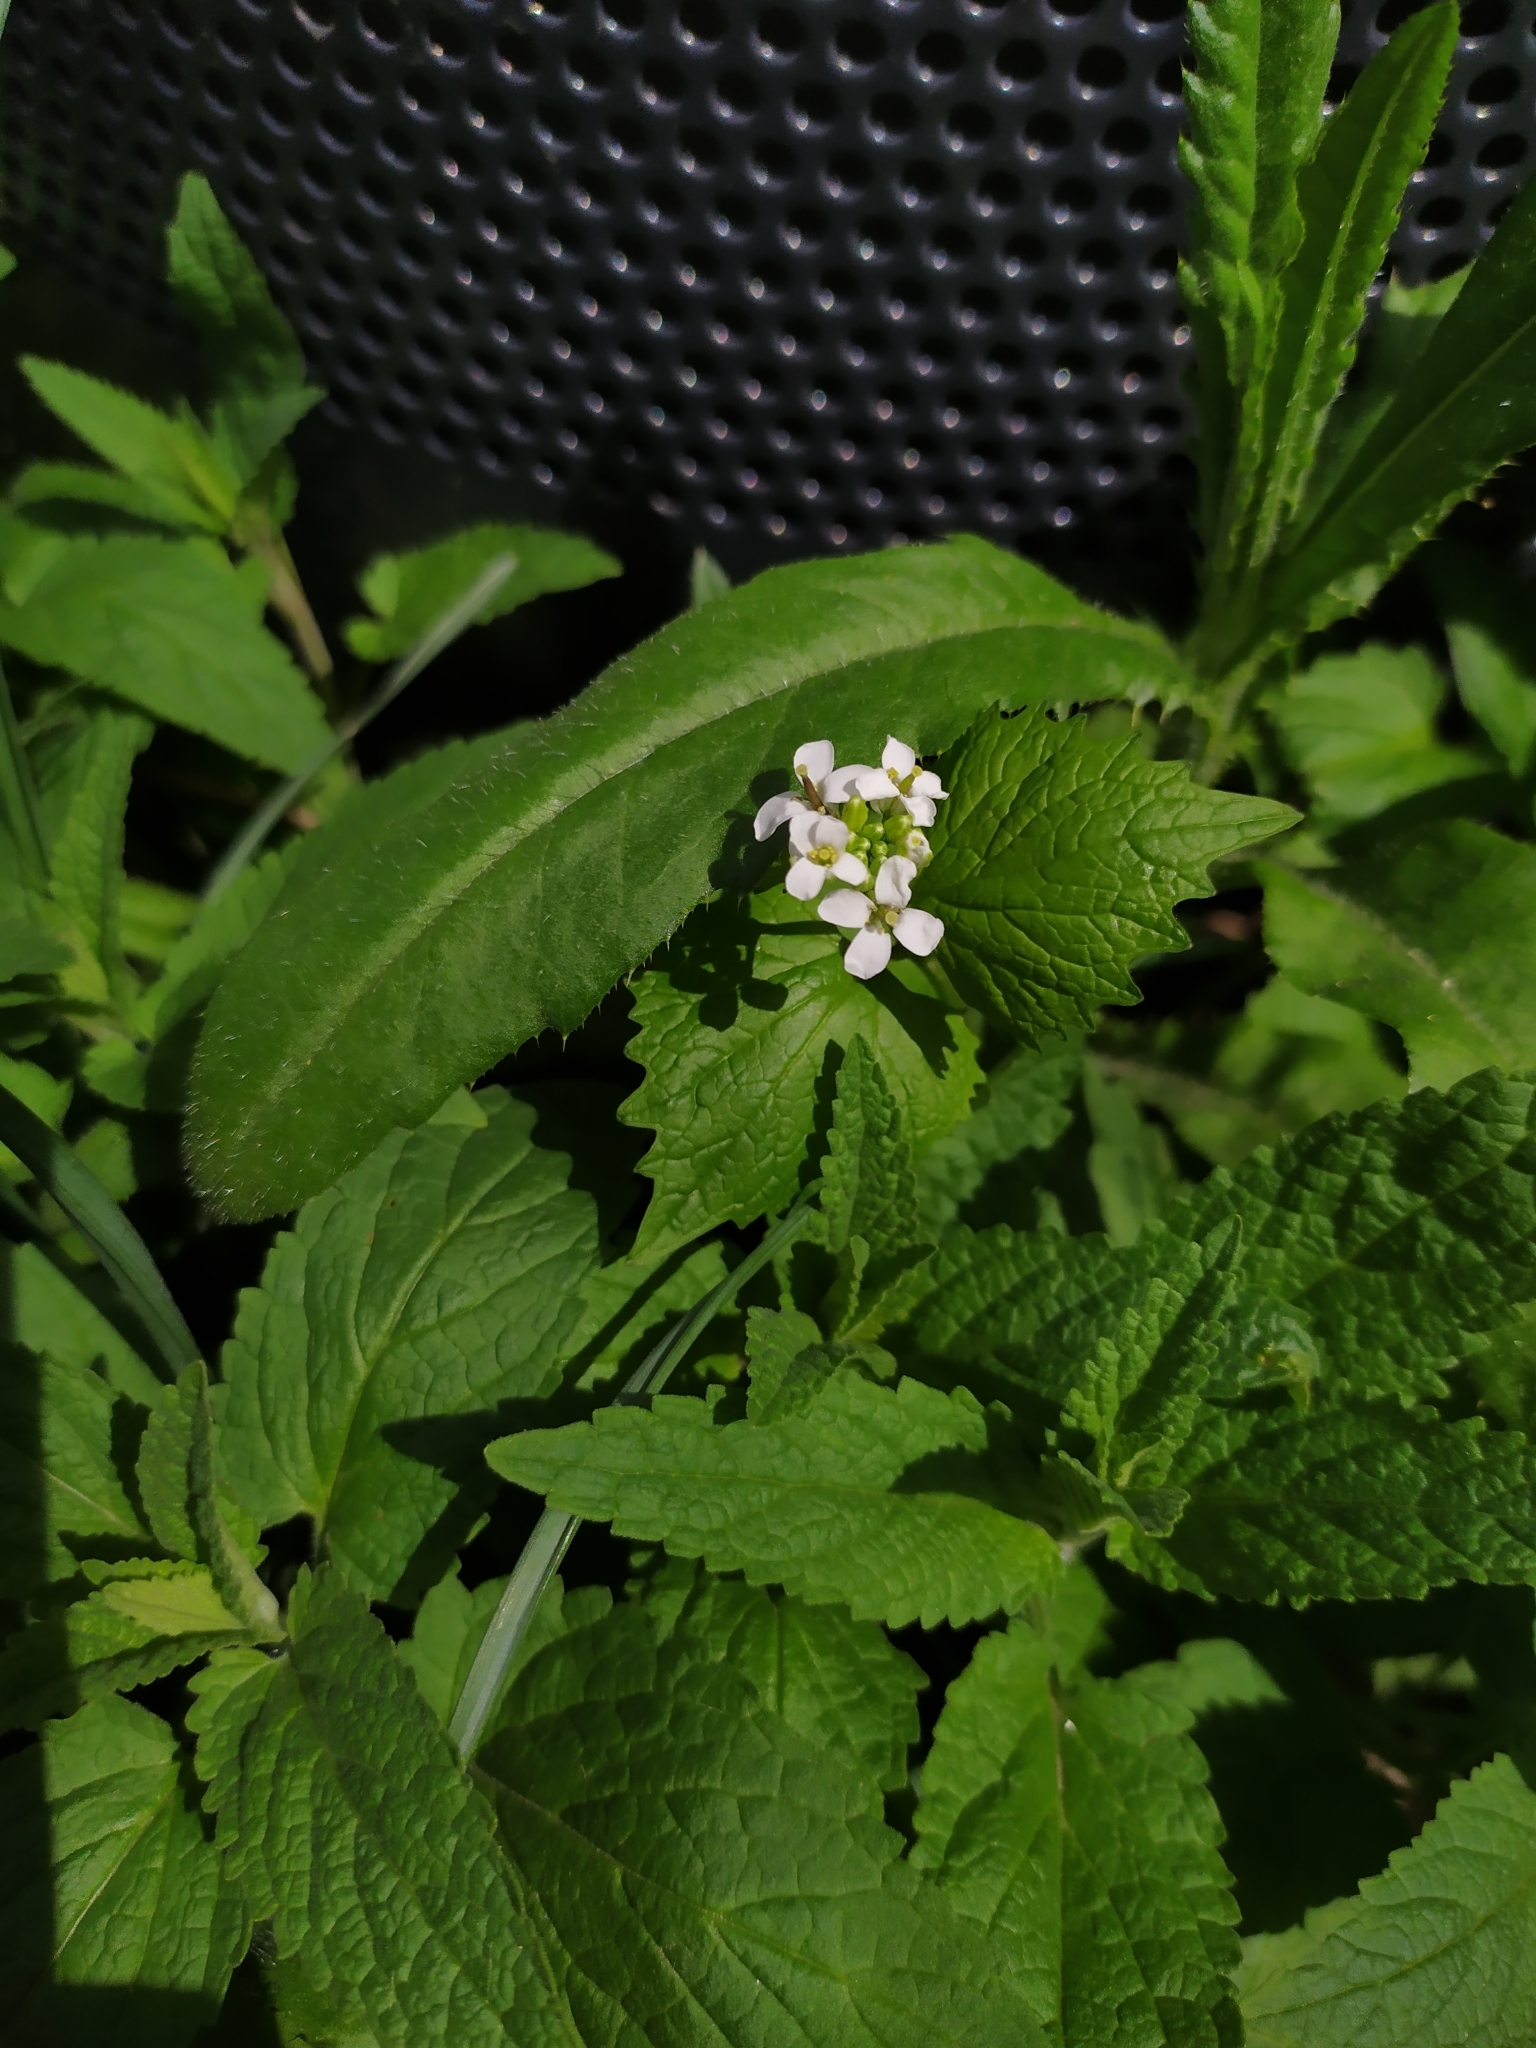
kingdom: Plantae
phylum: Tracheophyta
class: Magnoliopsida
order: Brassicales
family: Brassicaceae
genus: Alliaria
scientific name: Alliaria petiolata
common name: Garlic mustard
